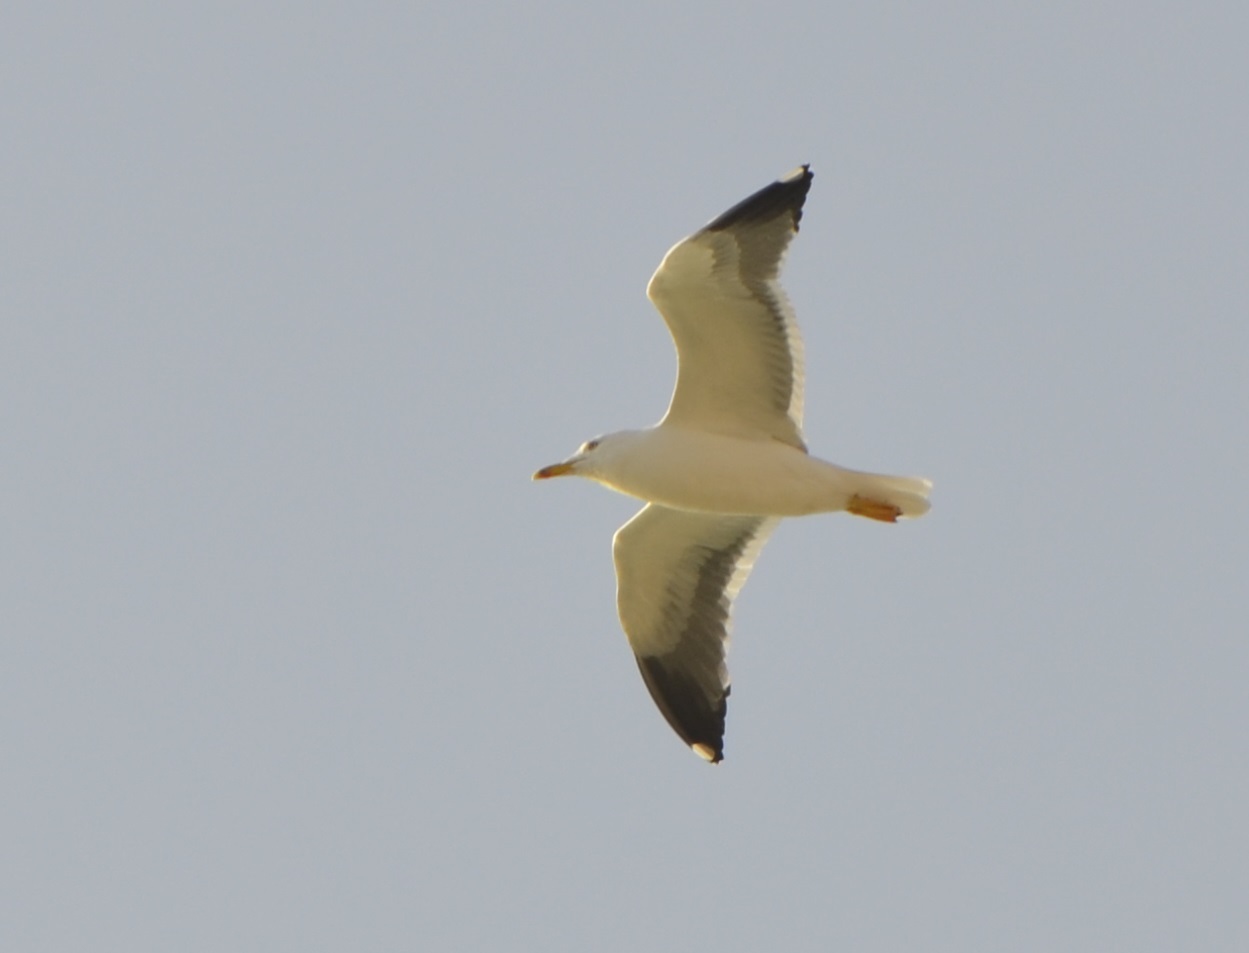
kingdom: Animalia
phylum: Chordata
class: Aves
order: Charadriiformes
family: Laridae
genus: Larus
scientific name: Larus fuscus
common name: Lesser black-backed gull
